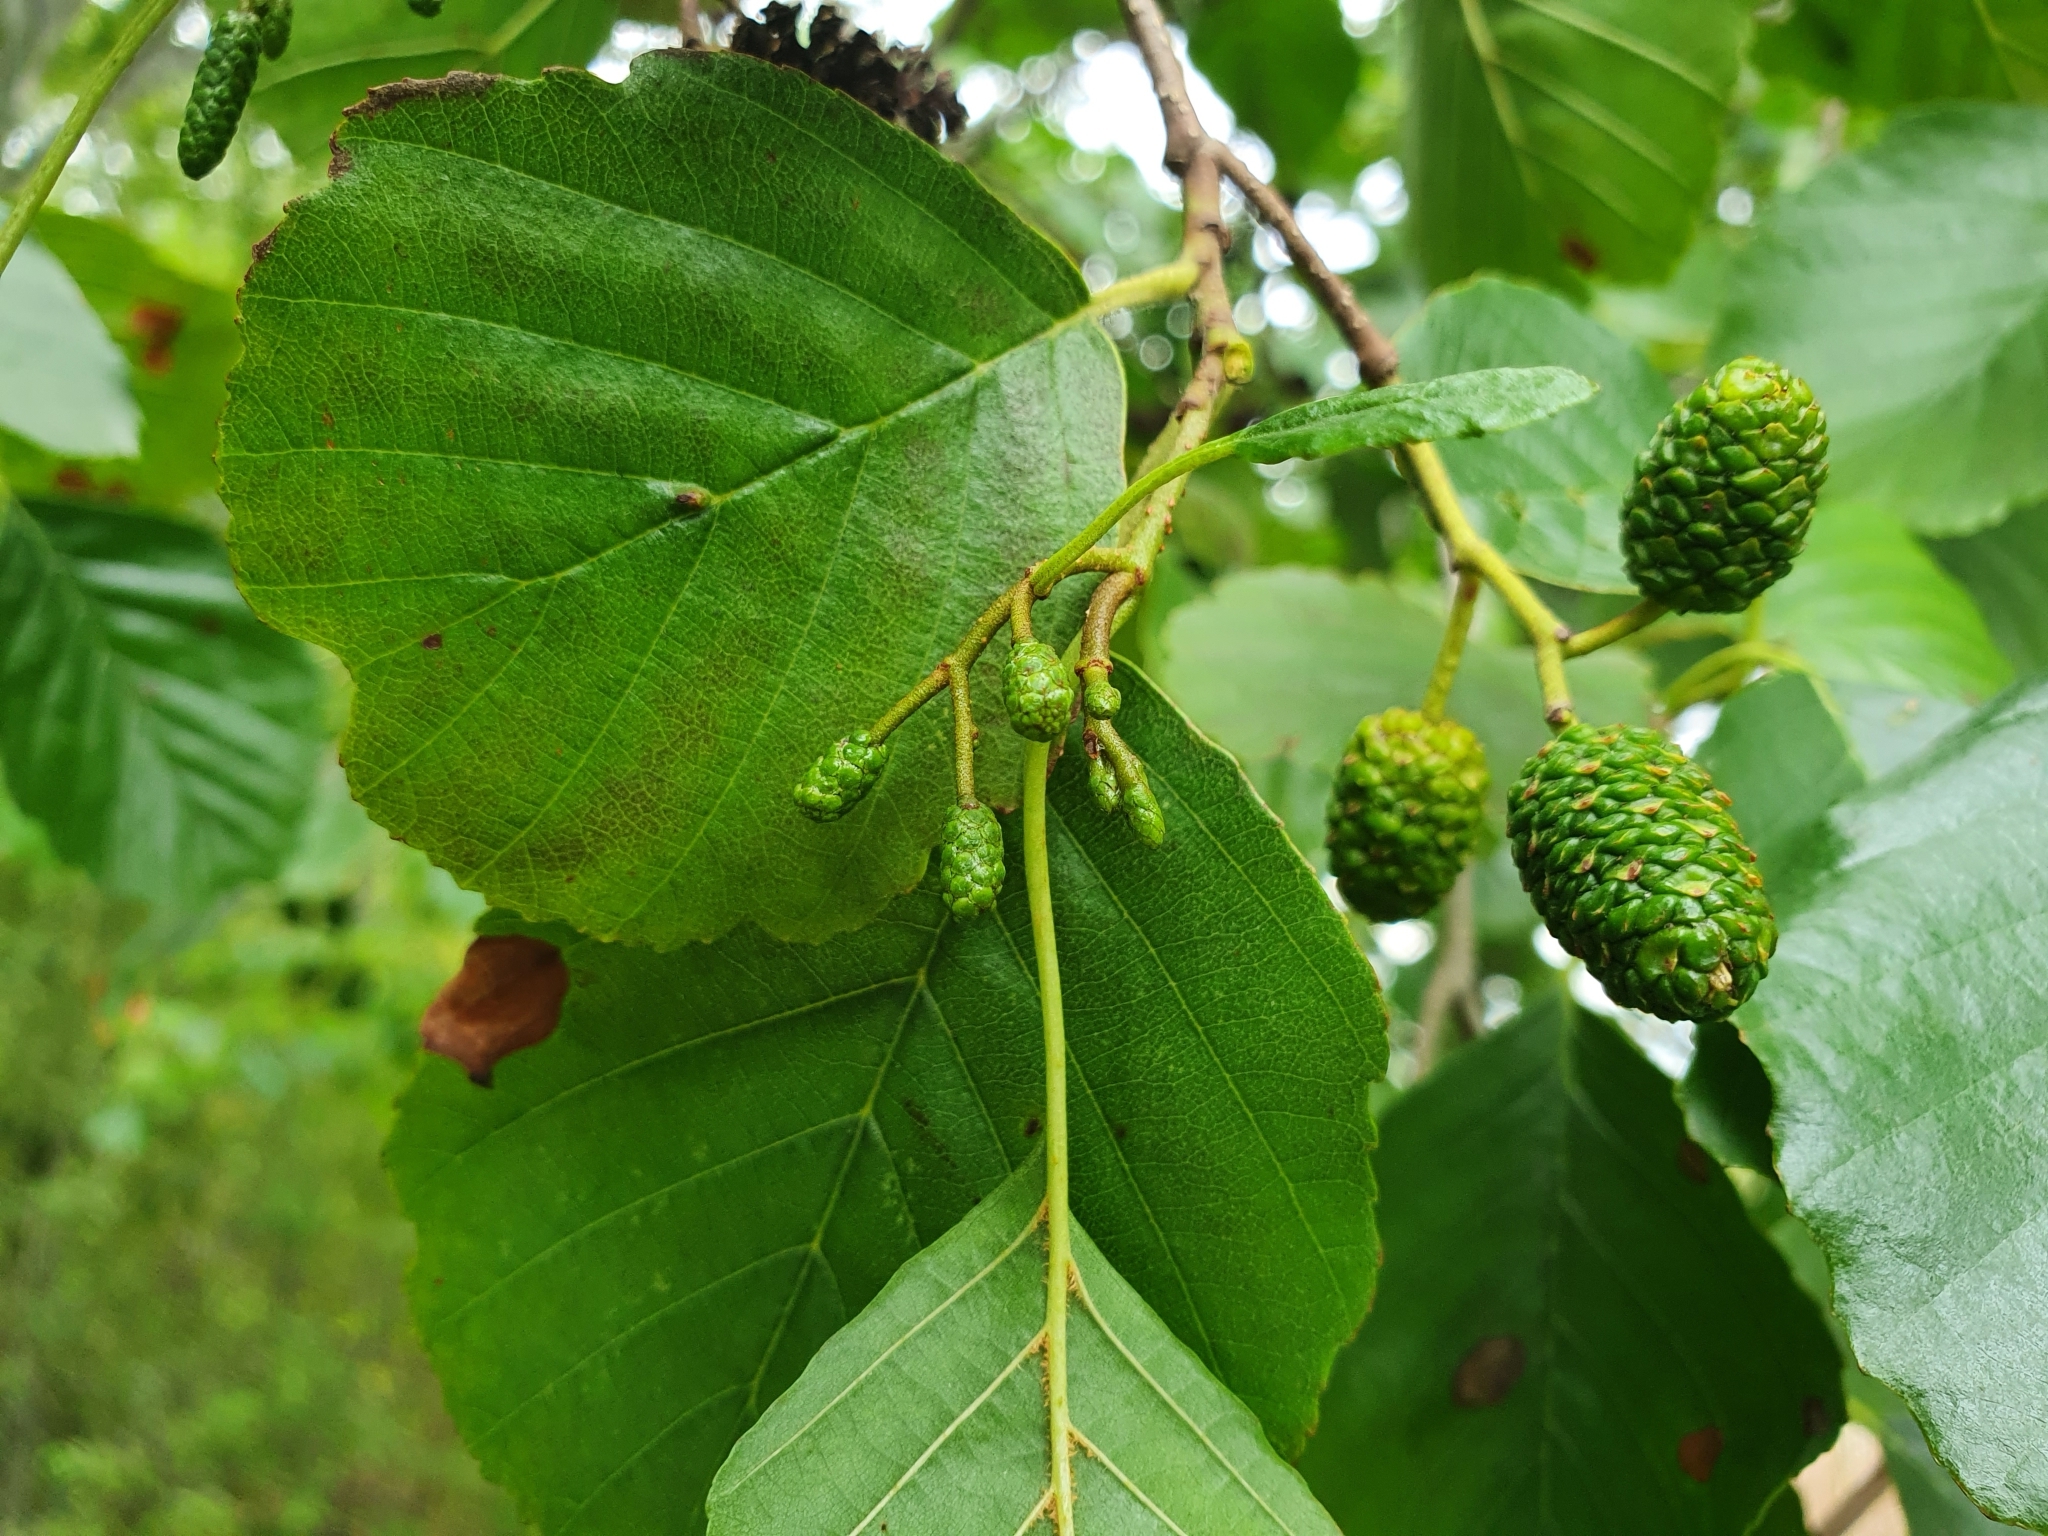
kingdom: Plantae
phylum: Tracheophyta
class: Magnoliopsida
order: Fagales
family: Betulaceae
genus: Alnus
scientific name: Alnus glutinosa
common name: Black alder
